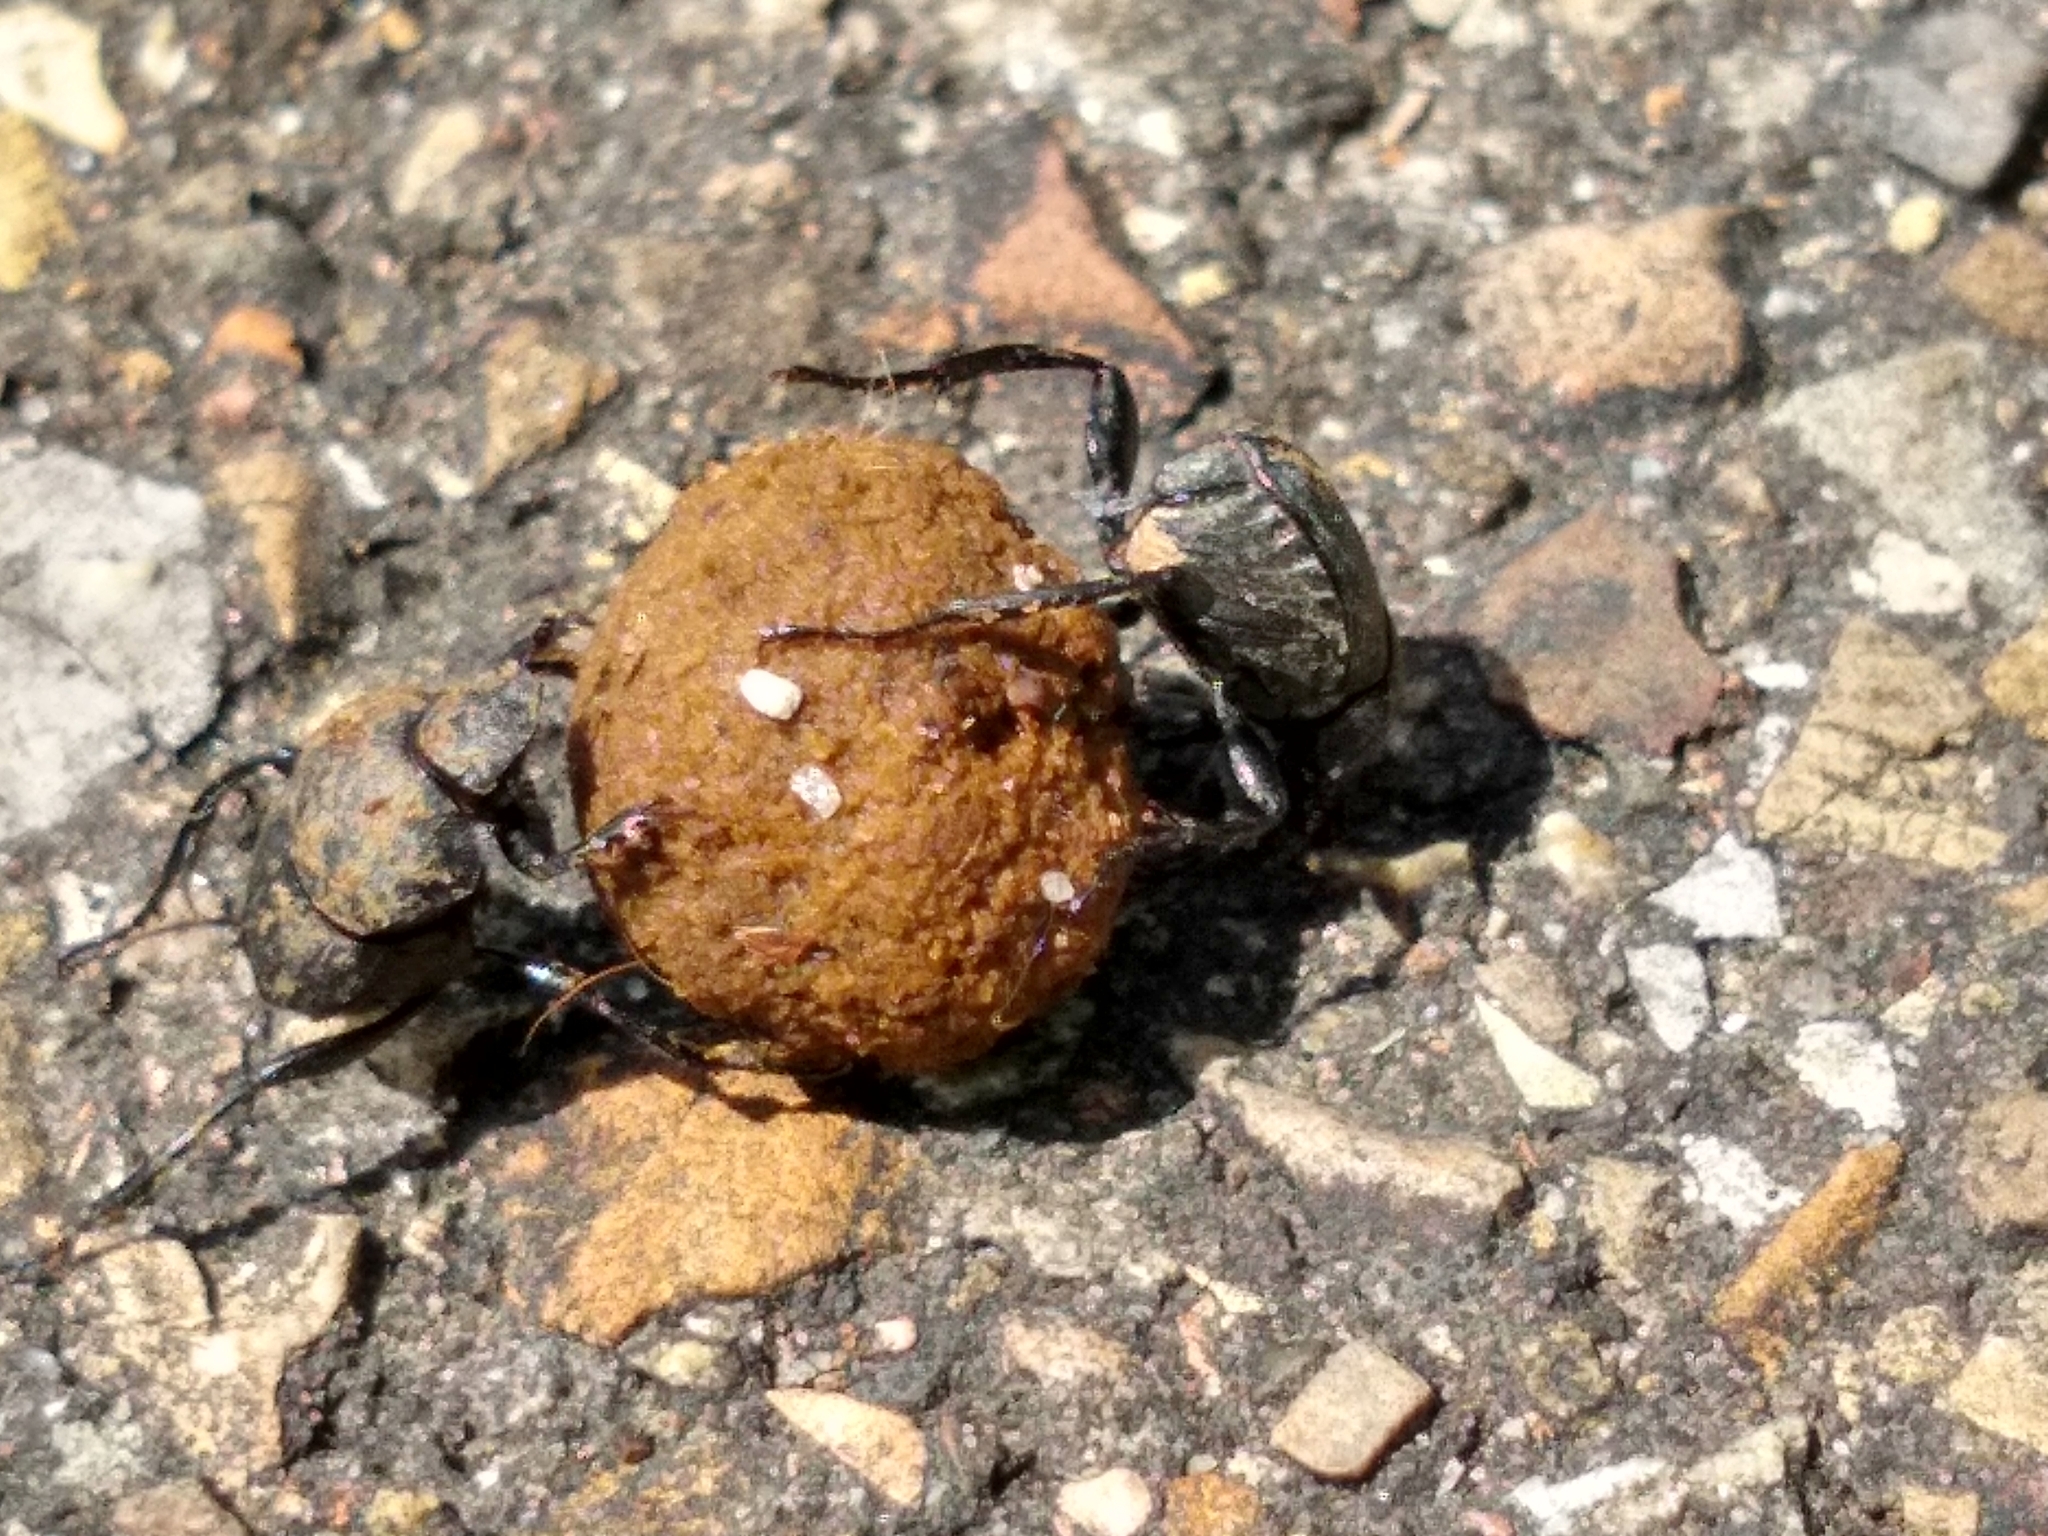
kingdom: Animalia
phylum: Arthropoda
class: Insecta
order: Coleoptera
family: Scarabaeidae
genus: Sisyphus
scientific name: Sisyphus schaefferi
